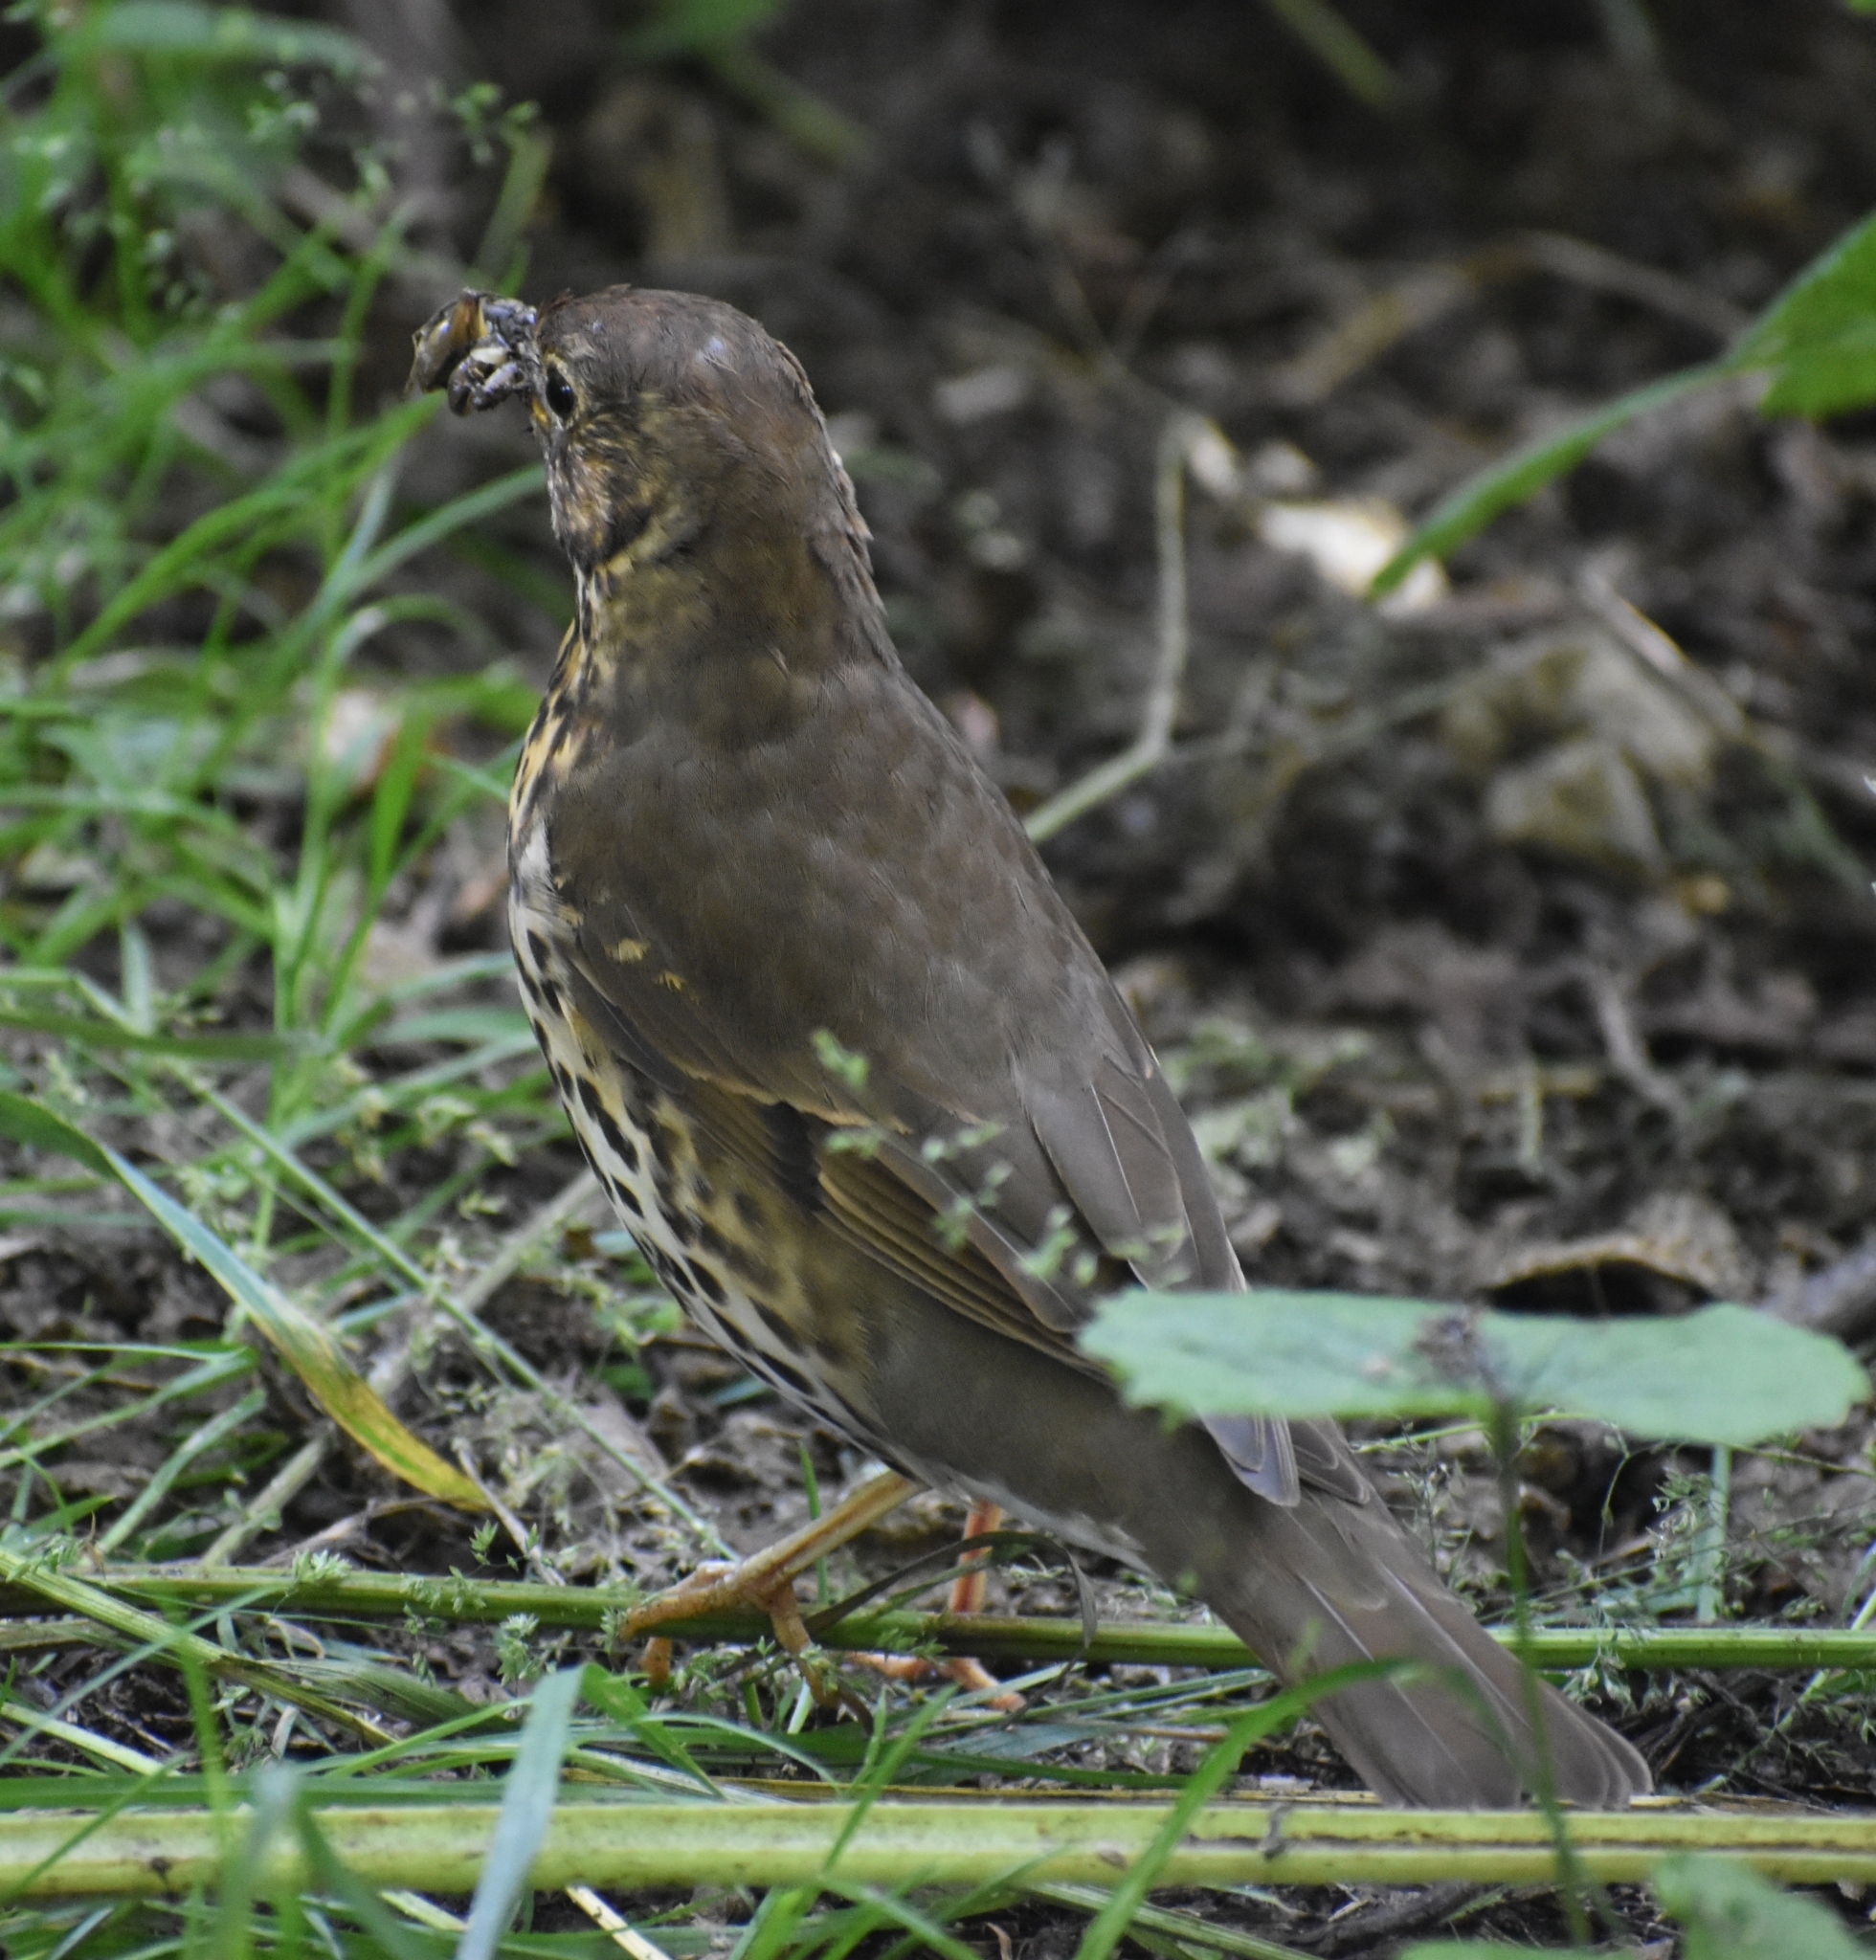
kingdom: Animalia
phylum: Chordata
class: Aves
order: Passeriformes
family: Turdidae
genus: Turdus
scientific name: Turdus philomelos
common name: Song thrush
